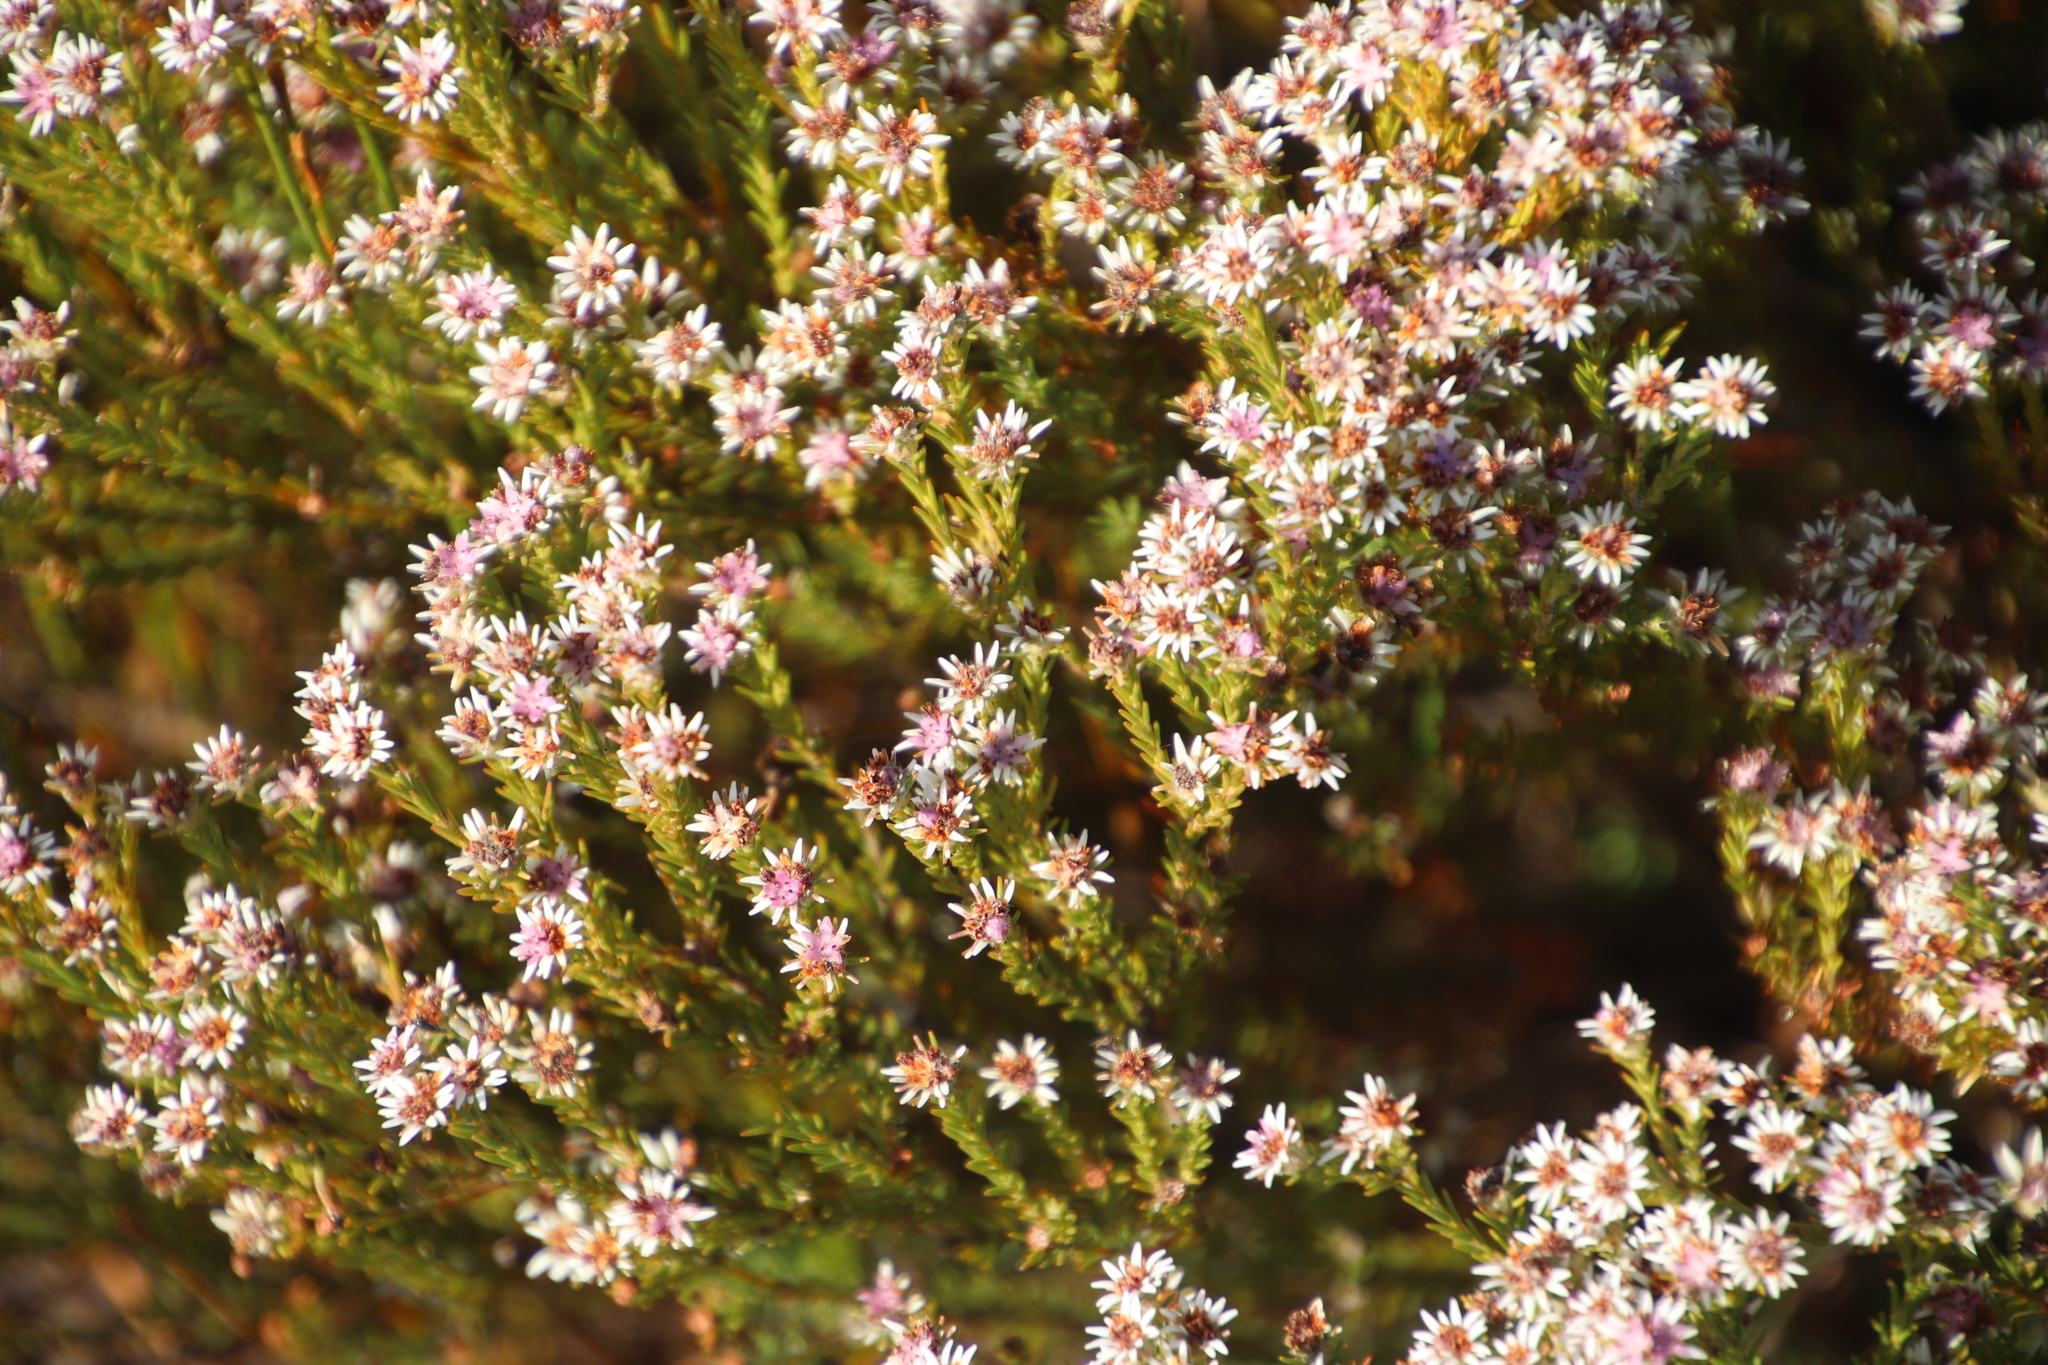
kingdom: Plantae
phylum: Tracheophyta
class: Magnoliopsida
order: Bruniales
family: Bruniaceae
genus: Staavia
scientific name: Staavia radiata
